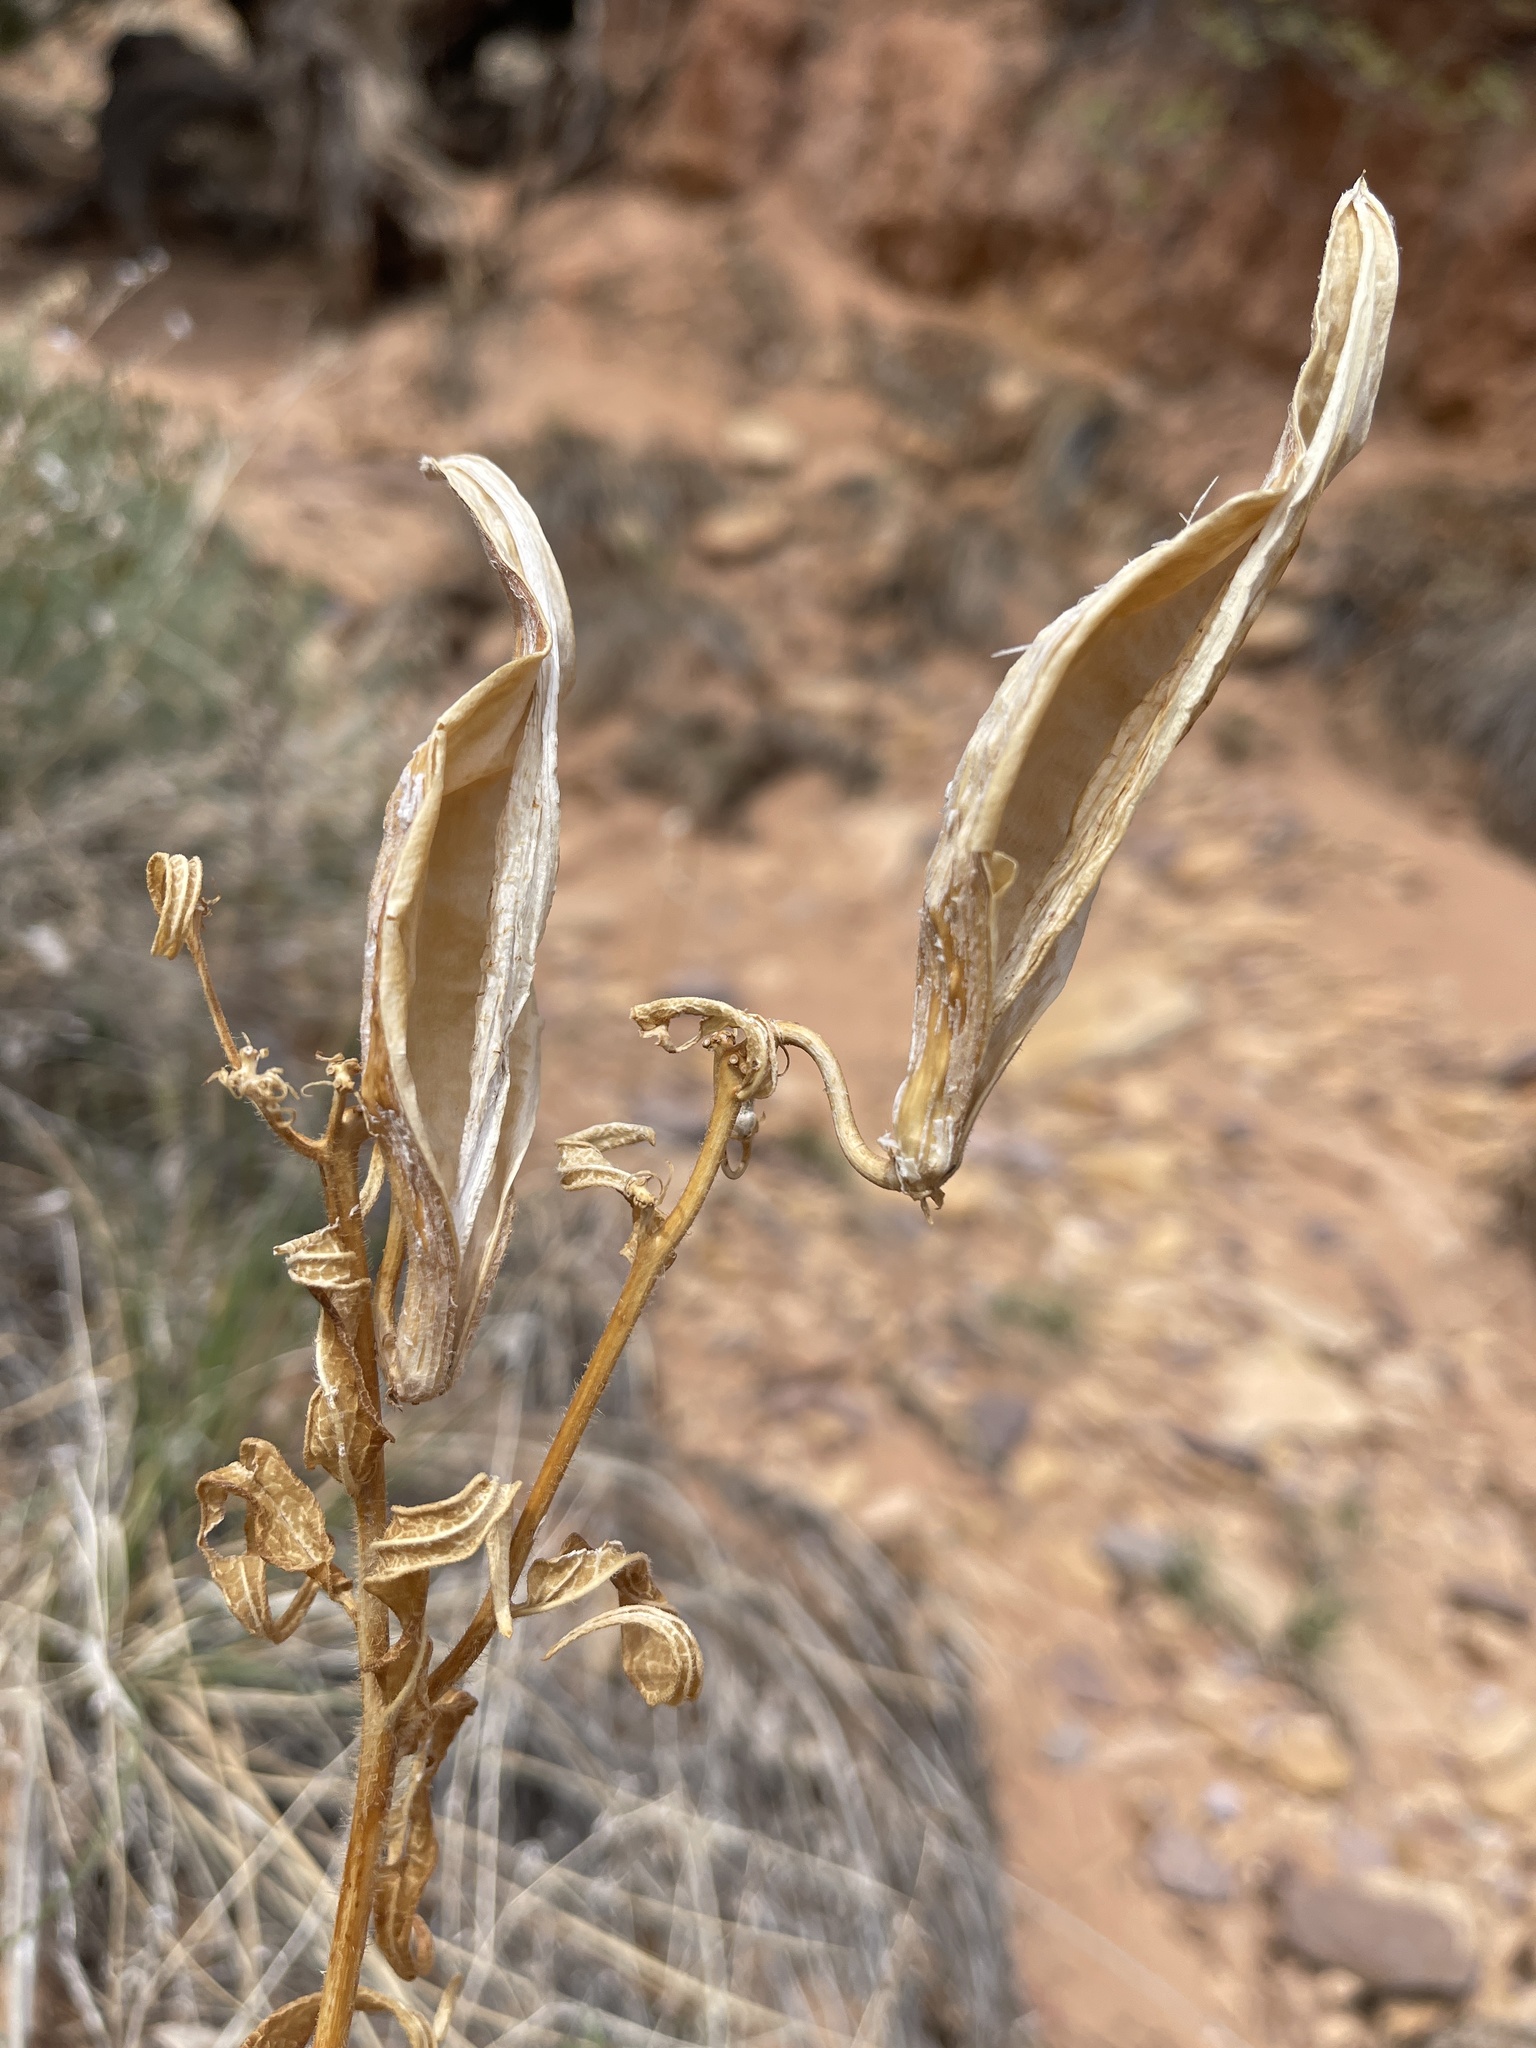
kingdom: Plantae
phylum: Tracheophyta
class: Magnoliopsida
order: Gentianales
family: Apocynaceae
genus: Asclepias
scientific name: Asclepias tuberosa
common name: Butterfly milkweed
